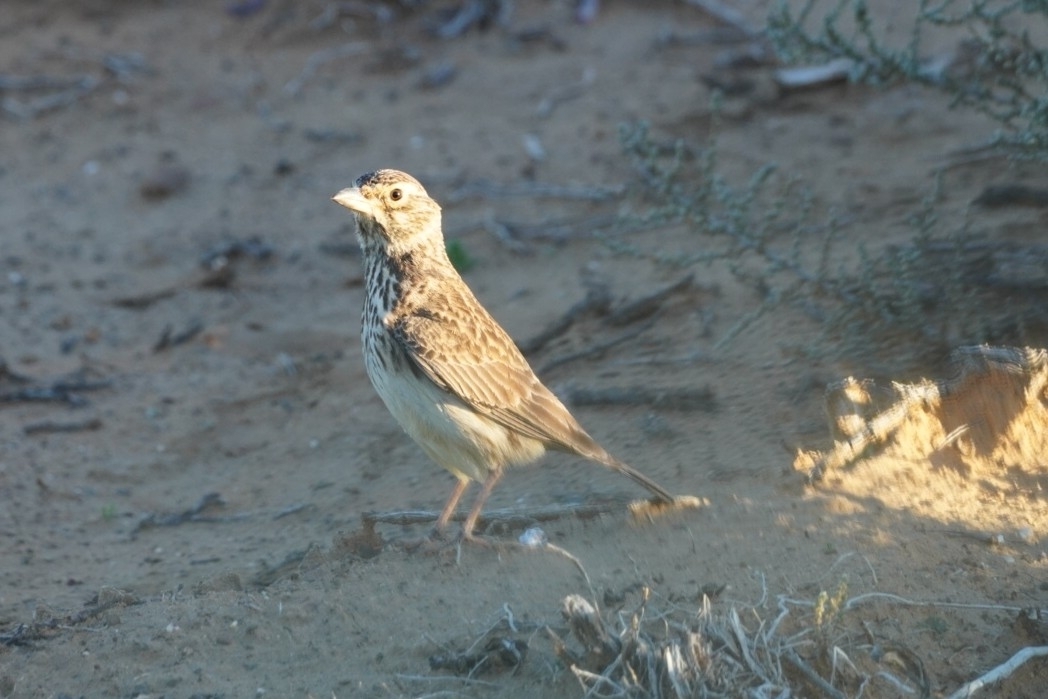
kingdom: Animalia
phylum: Chordata
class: Aves
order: Passeriformes
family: Alaudidae
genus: Galerida
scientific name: Galerida magnirostris
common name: Large-billed lark
